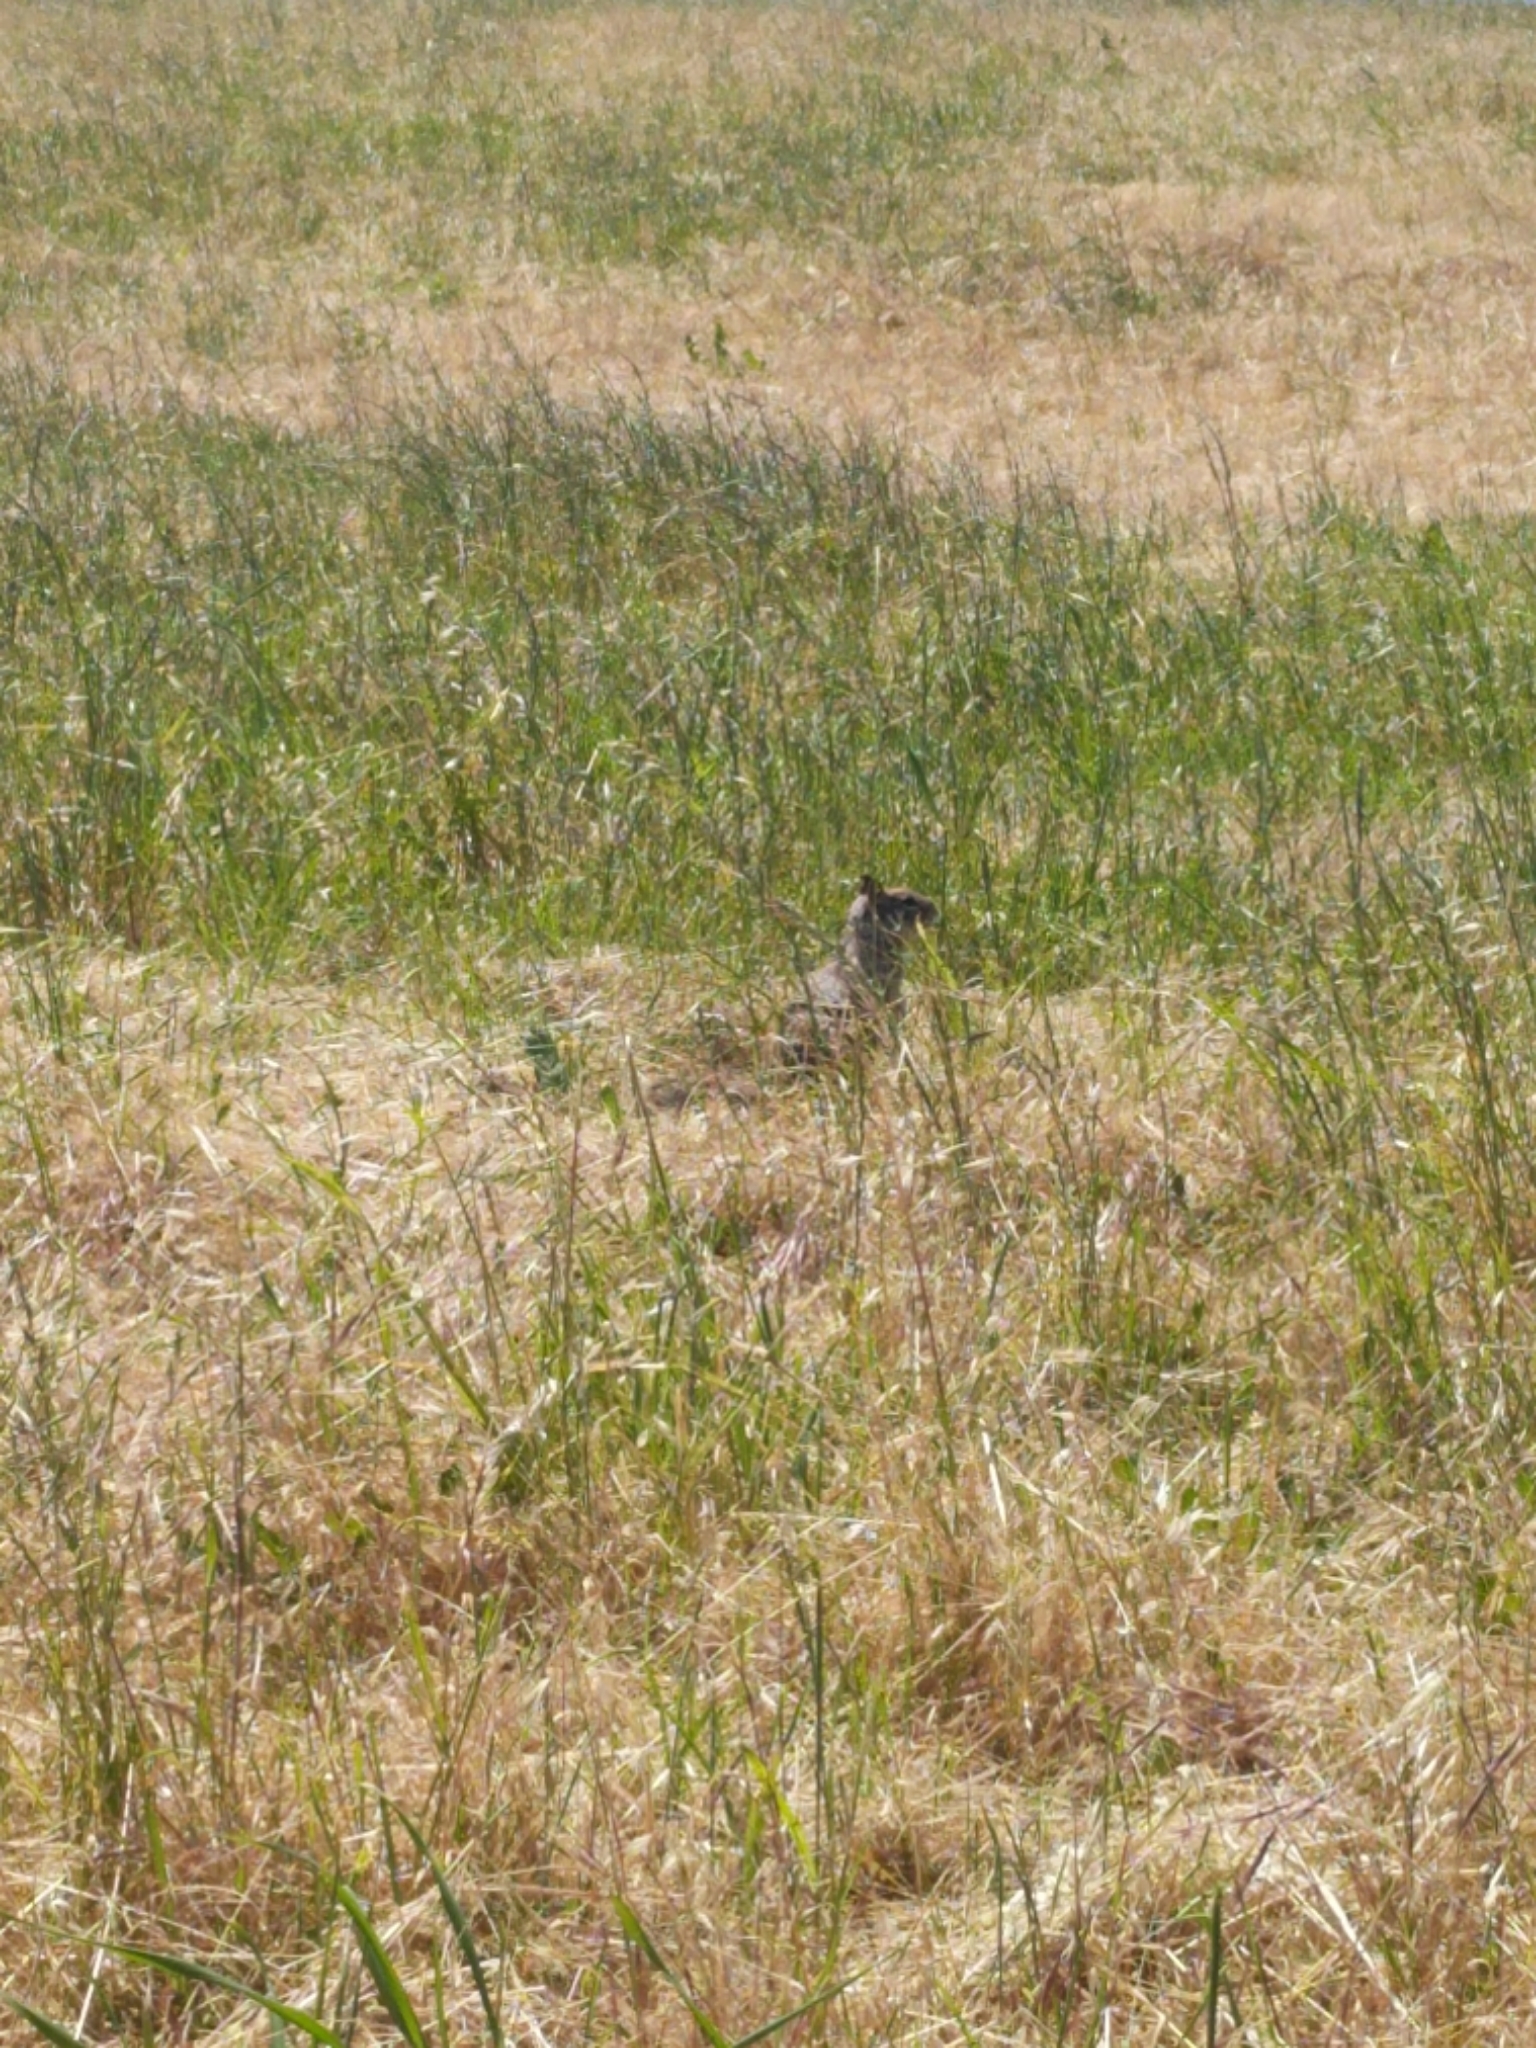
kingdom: Animalia
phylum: Chordata
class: Mammalia
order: Rodentia
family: Sciuridae
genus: Otospermophilus
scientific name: Otospermophilus beecheyi
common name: California ground squirrel
